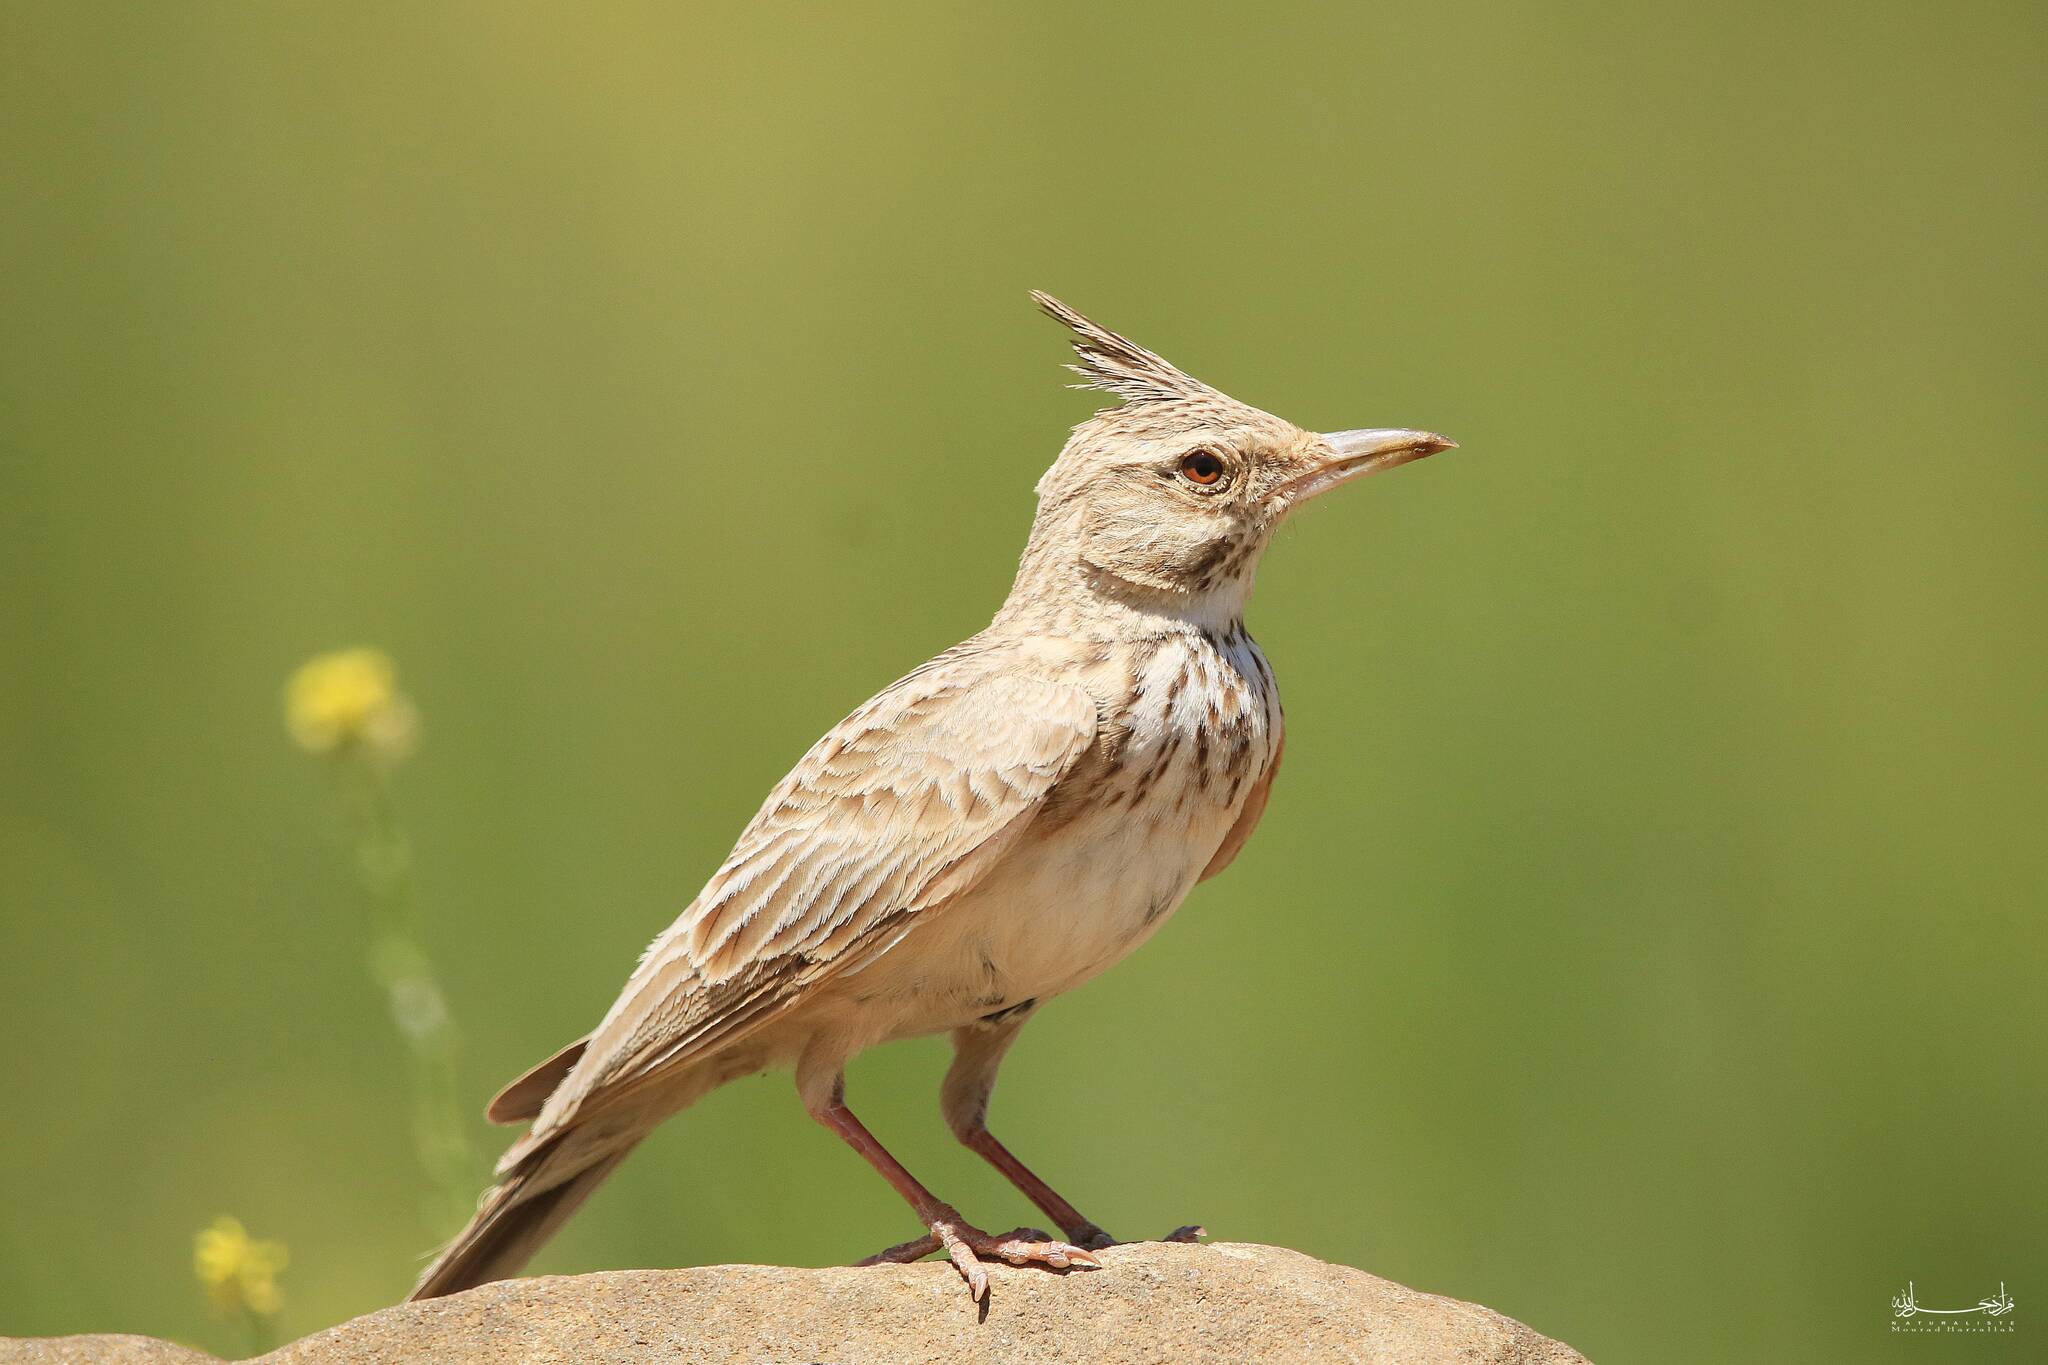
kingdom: Animalia
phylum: Chordata
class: Aves
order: Passeriformes
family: Alaudidae
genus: Galerida
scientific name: Galerida cristata
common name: Crested lark
